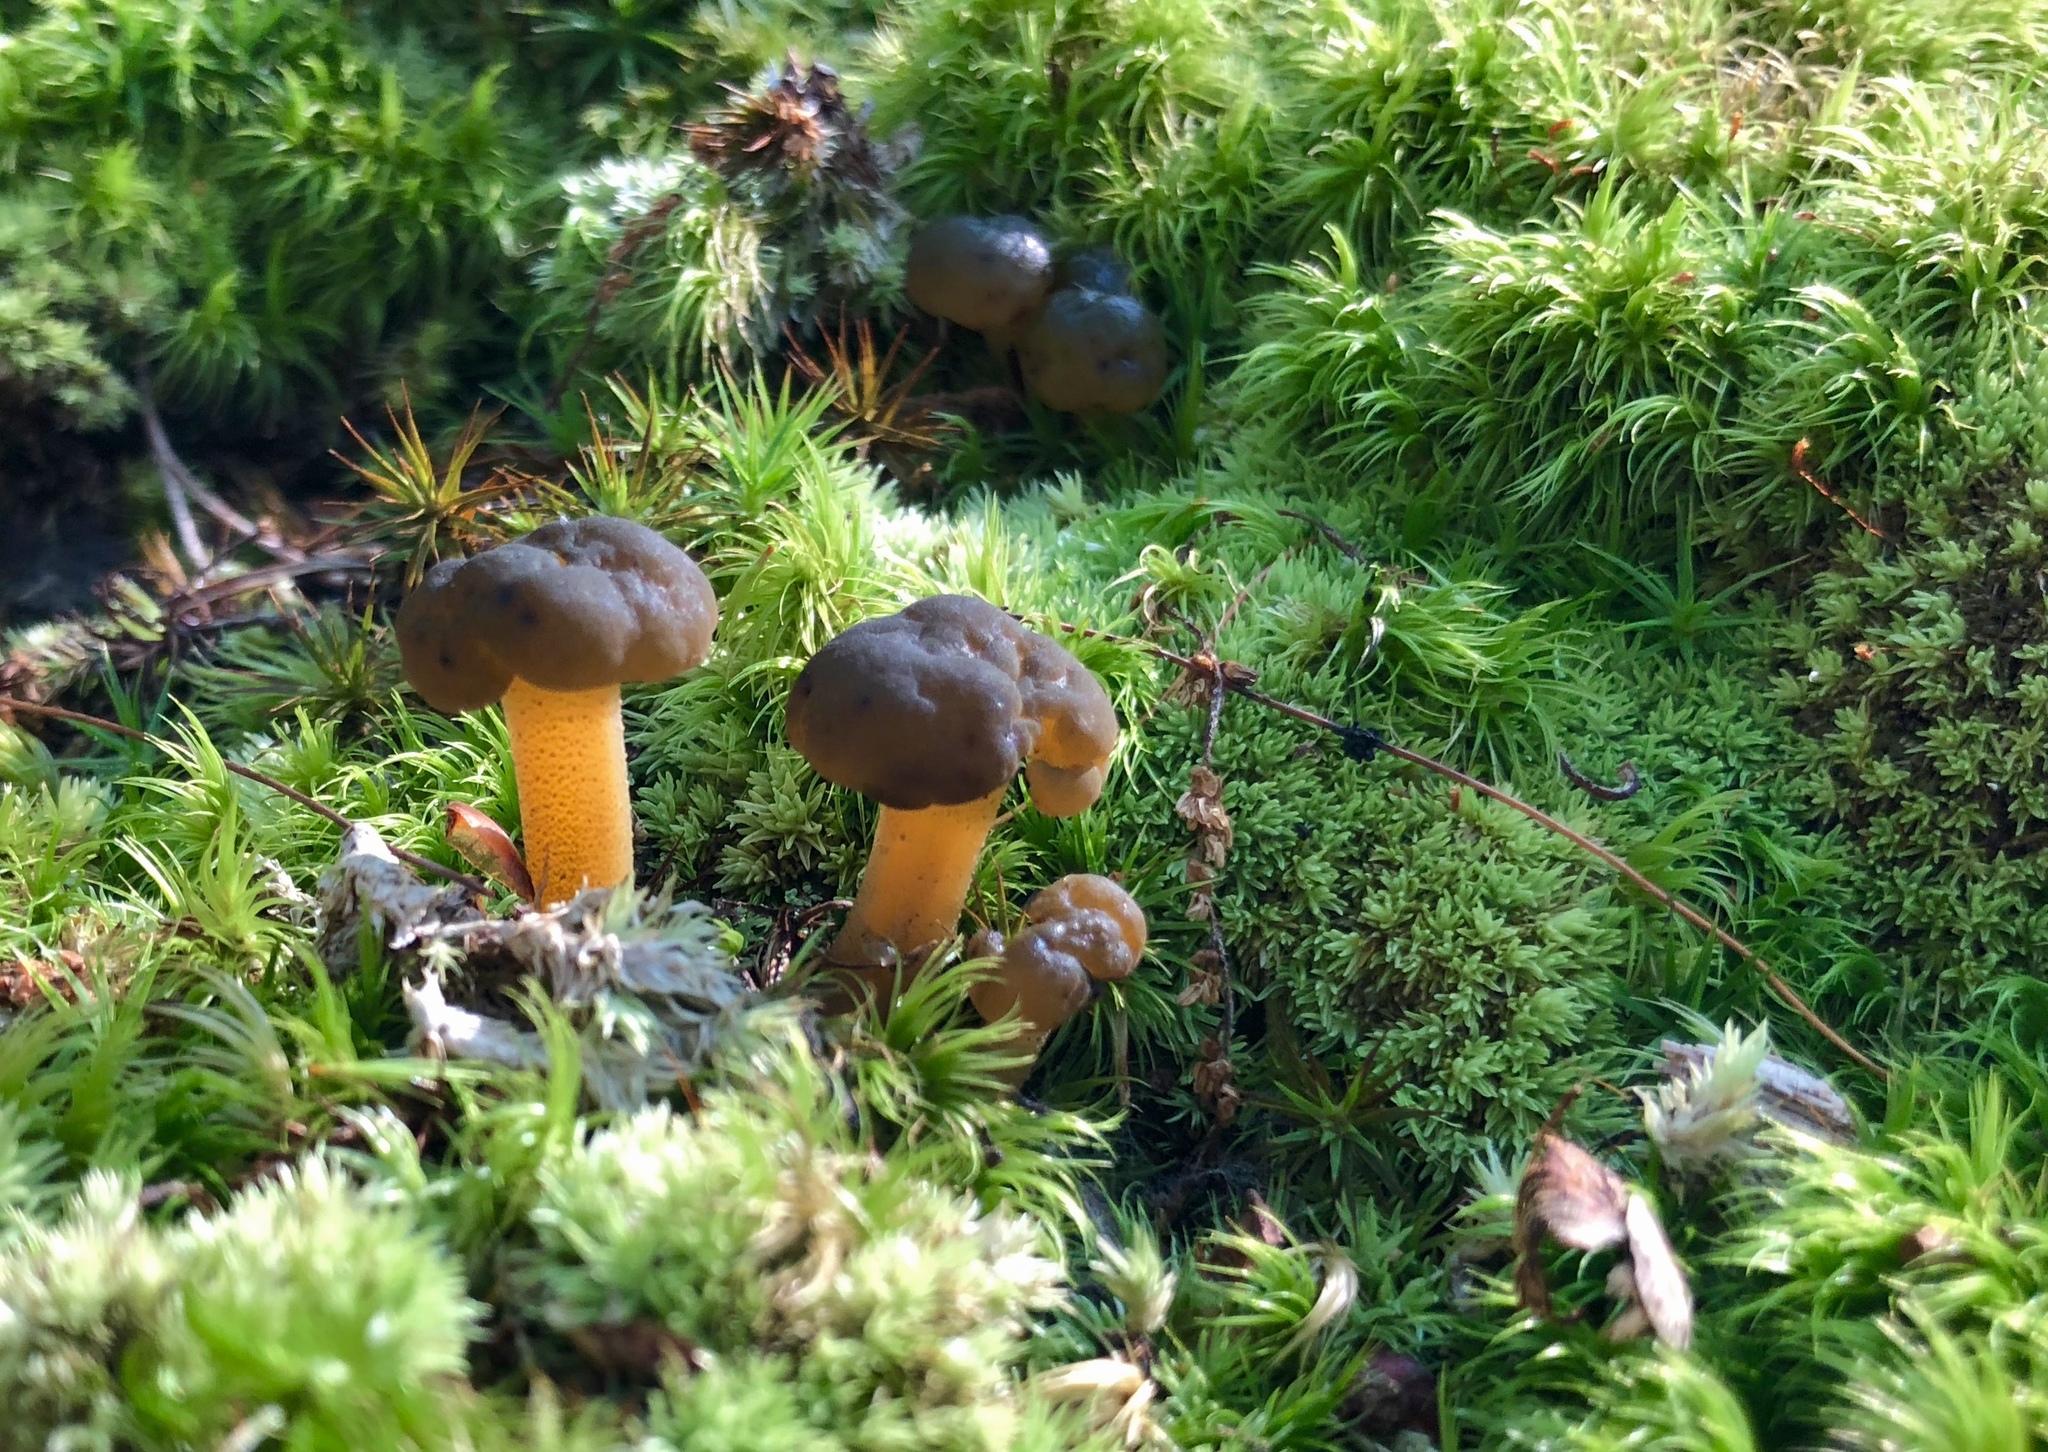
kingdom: Fungi
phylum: Ascomycota
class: Leotiomycetes
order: Leotiales
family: Leotiaceae
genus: Leotia
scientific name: Leotia lubrica
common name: Jellybaby
